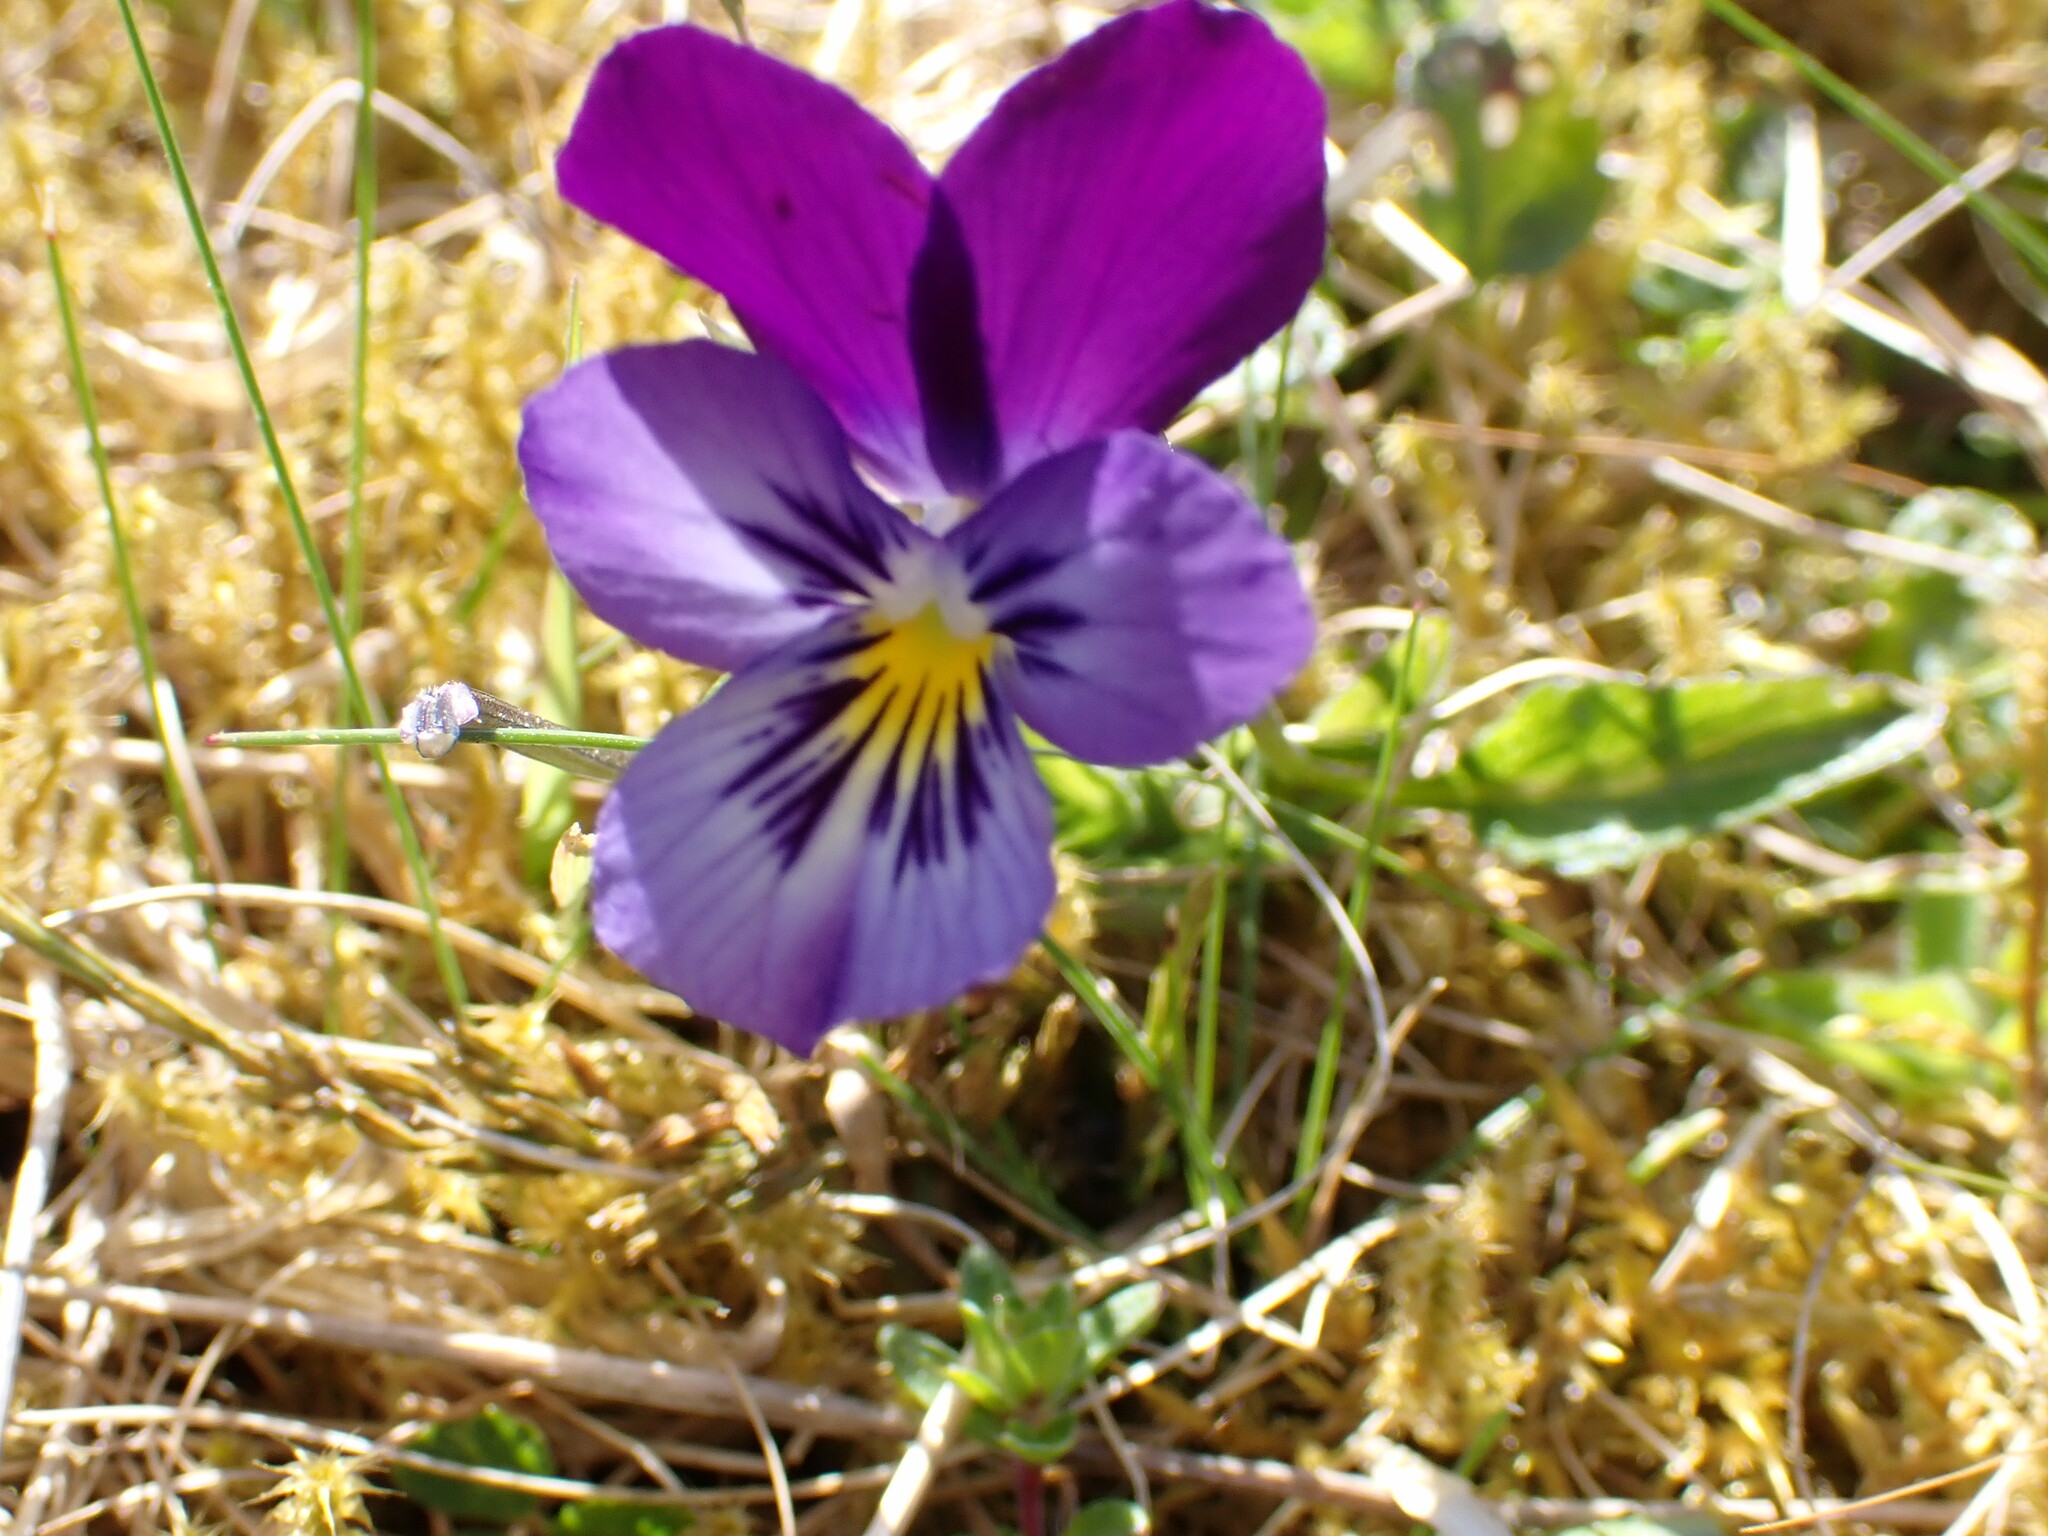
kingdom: Plantae
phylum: Tracheophyta
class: Magnoliopsida
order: Malpighiales
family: Violaceae
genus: Viola
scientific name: Viola lutea
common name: Mountain pansy
